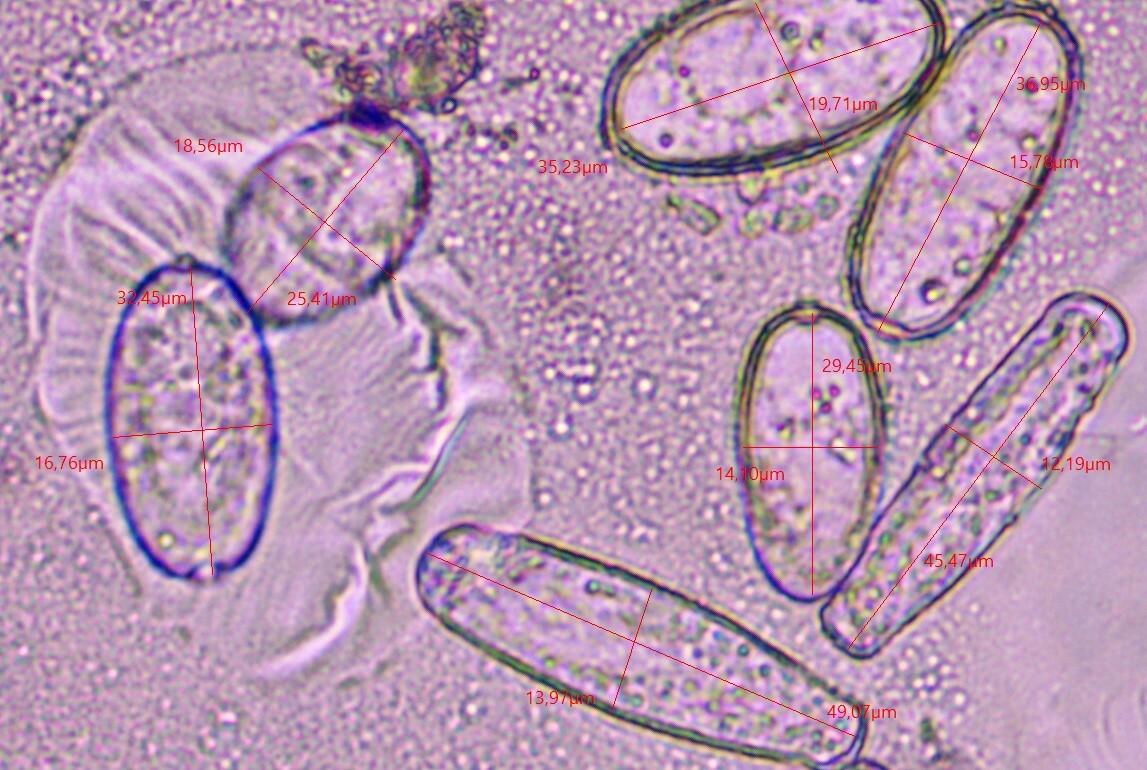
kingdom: Fungi
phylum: Ascomycota
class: Leotiomycetes
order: Helotiales
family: Erysiphaceae
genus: Erysiphe
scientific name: Erysiphe urticae
